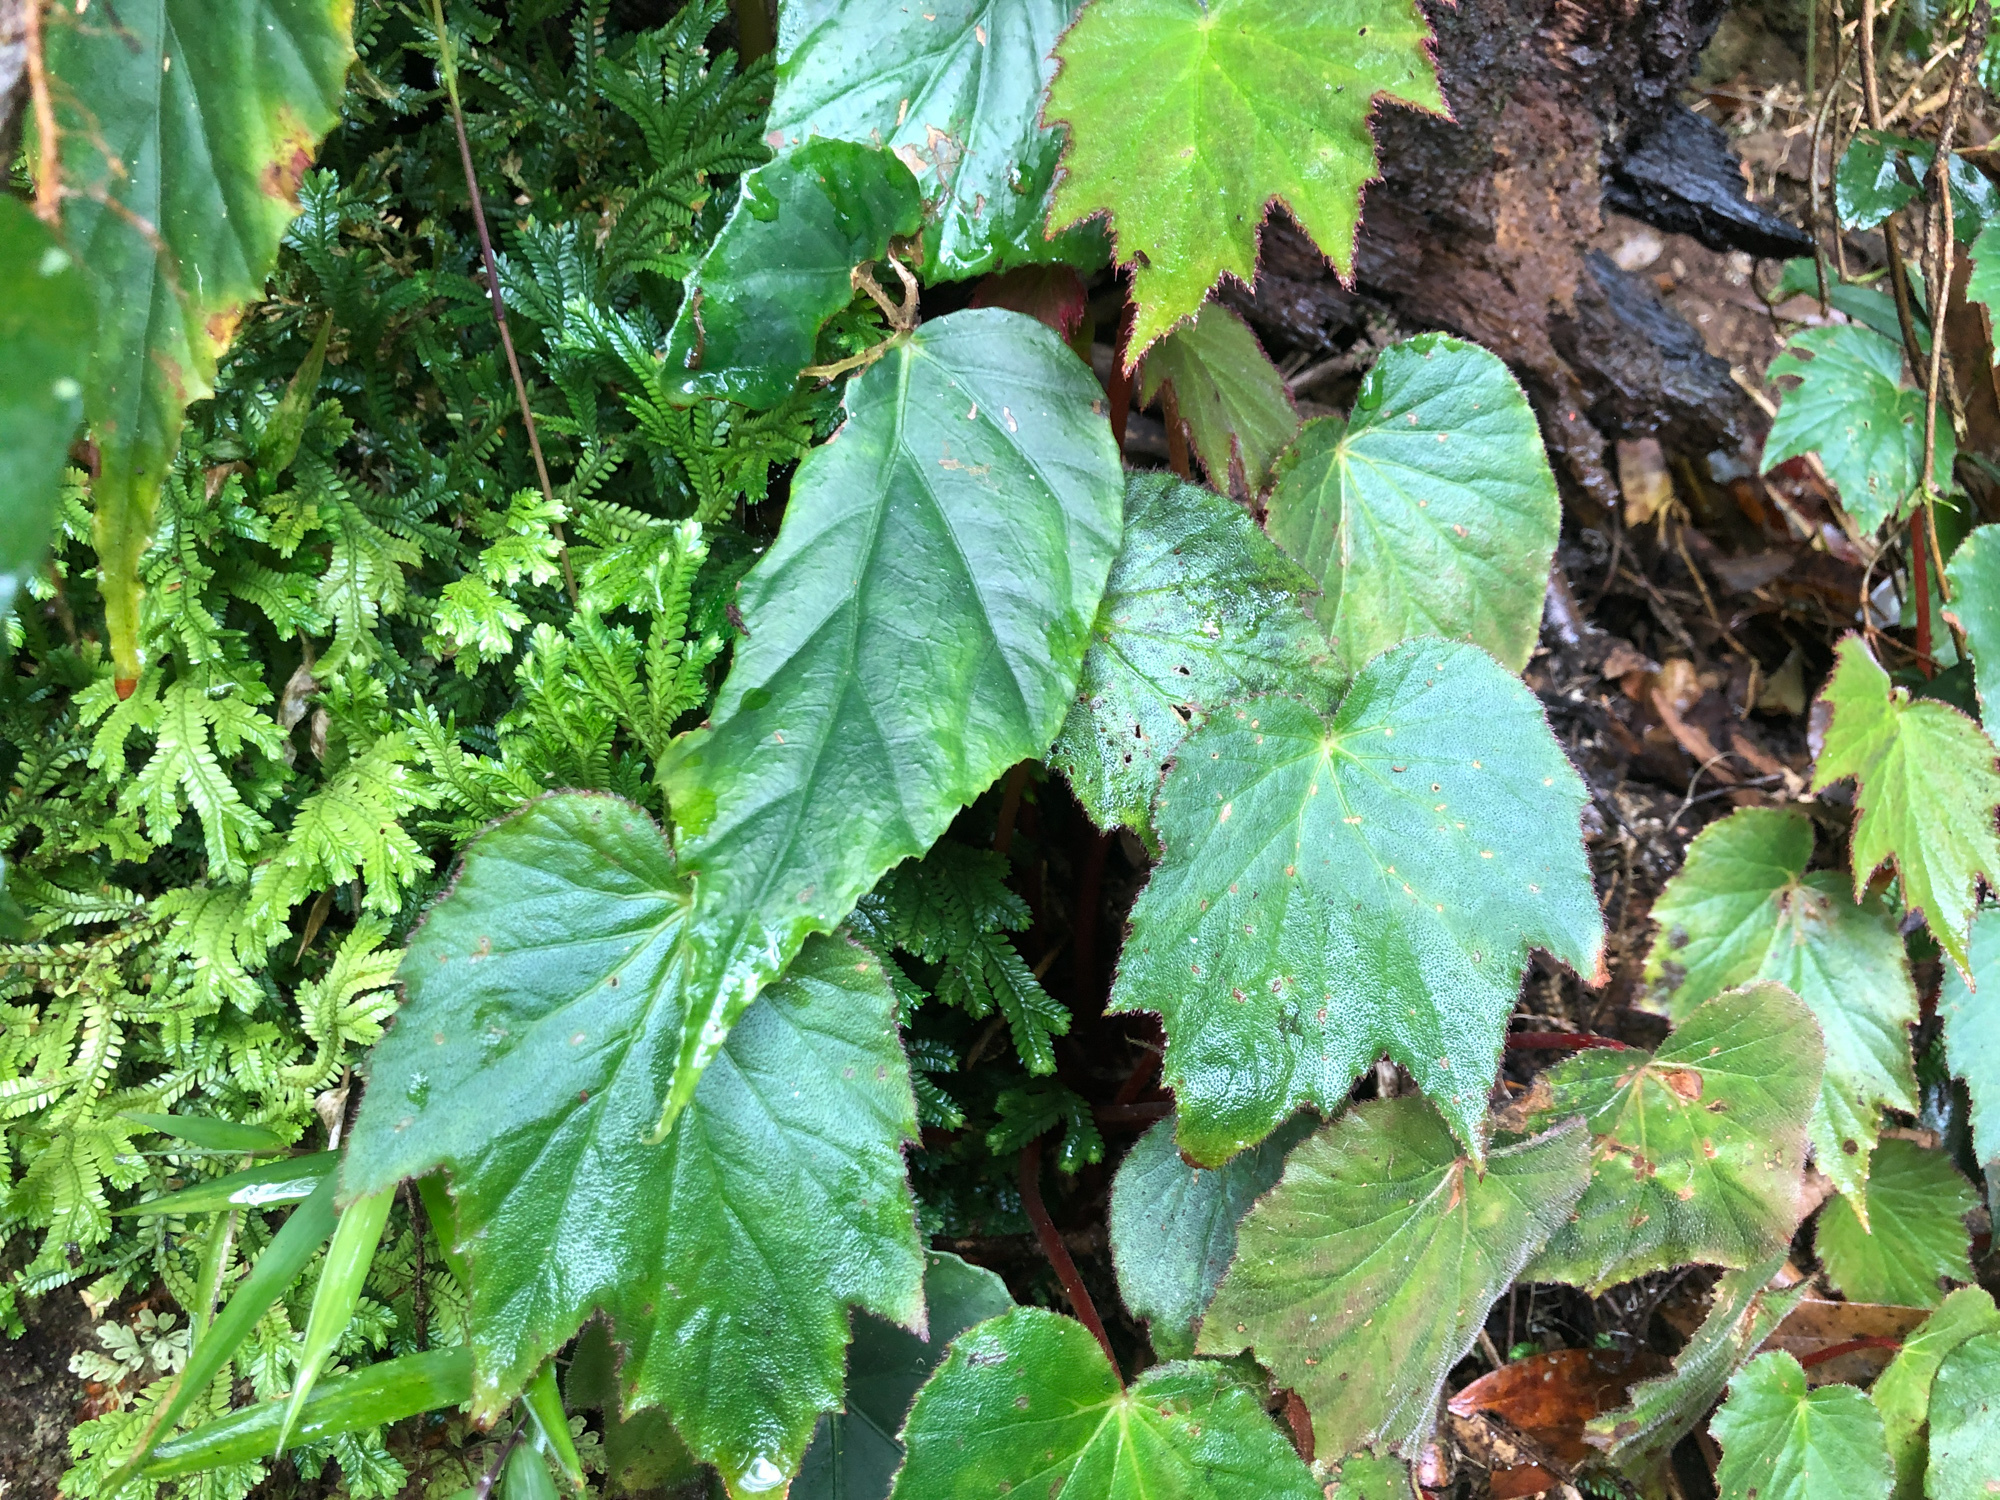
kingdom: Plantae
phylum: Tracheophyta
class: Magnoliopsida
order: Cucurbitales
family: Begoniaceae
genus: Begonia
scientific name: Begonia palmata
